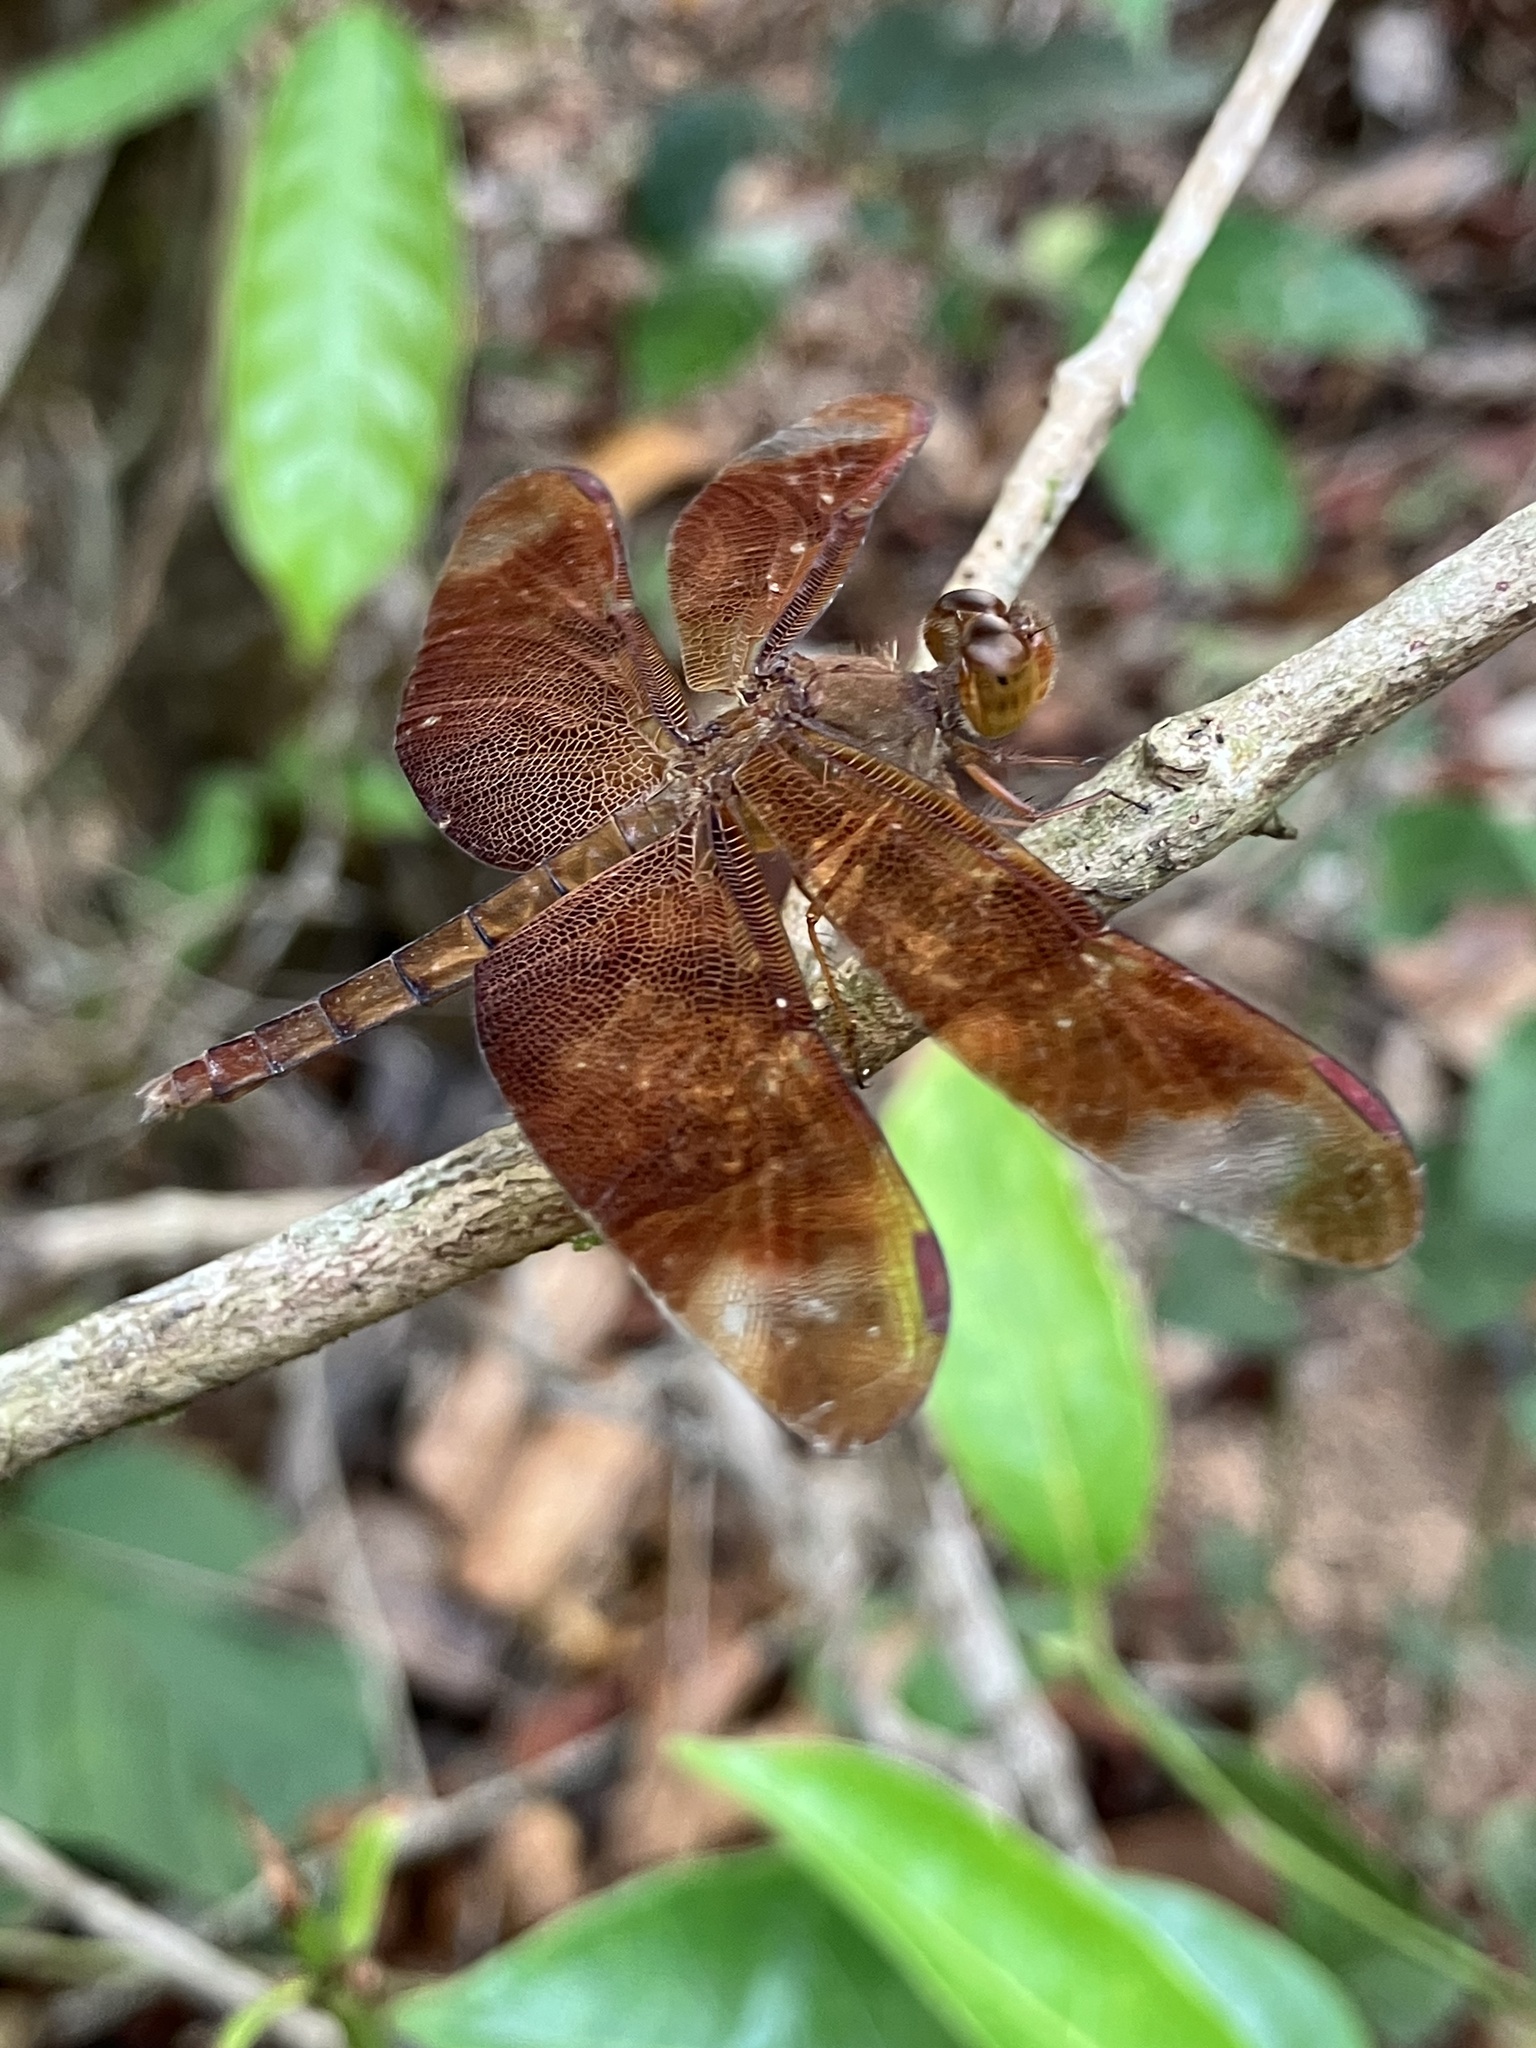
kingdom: Animalia
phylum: Arthropoda
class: Insecta
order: Odonata
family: Libellulidae
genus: Neurothemis
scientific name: Neurothemis fulvia
